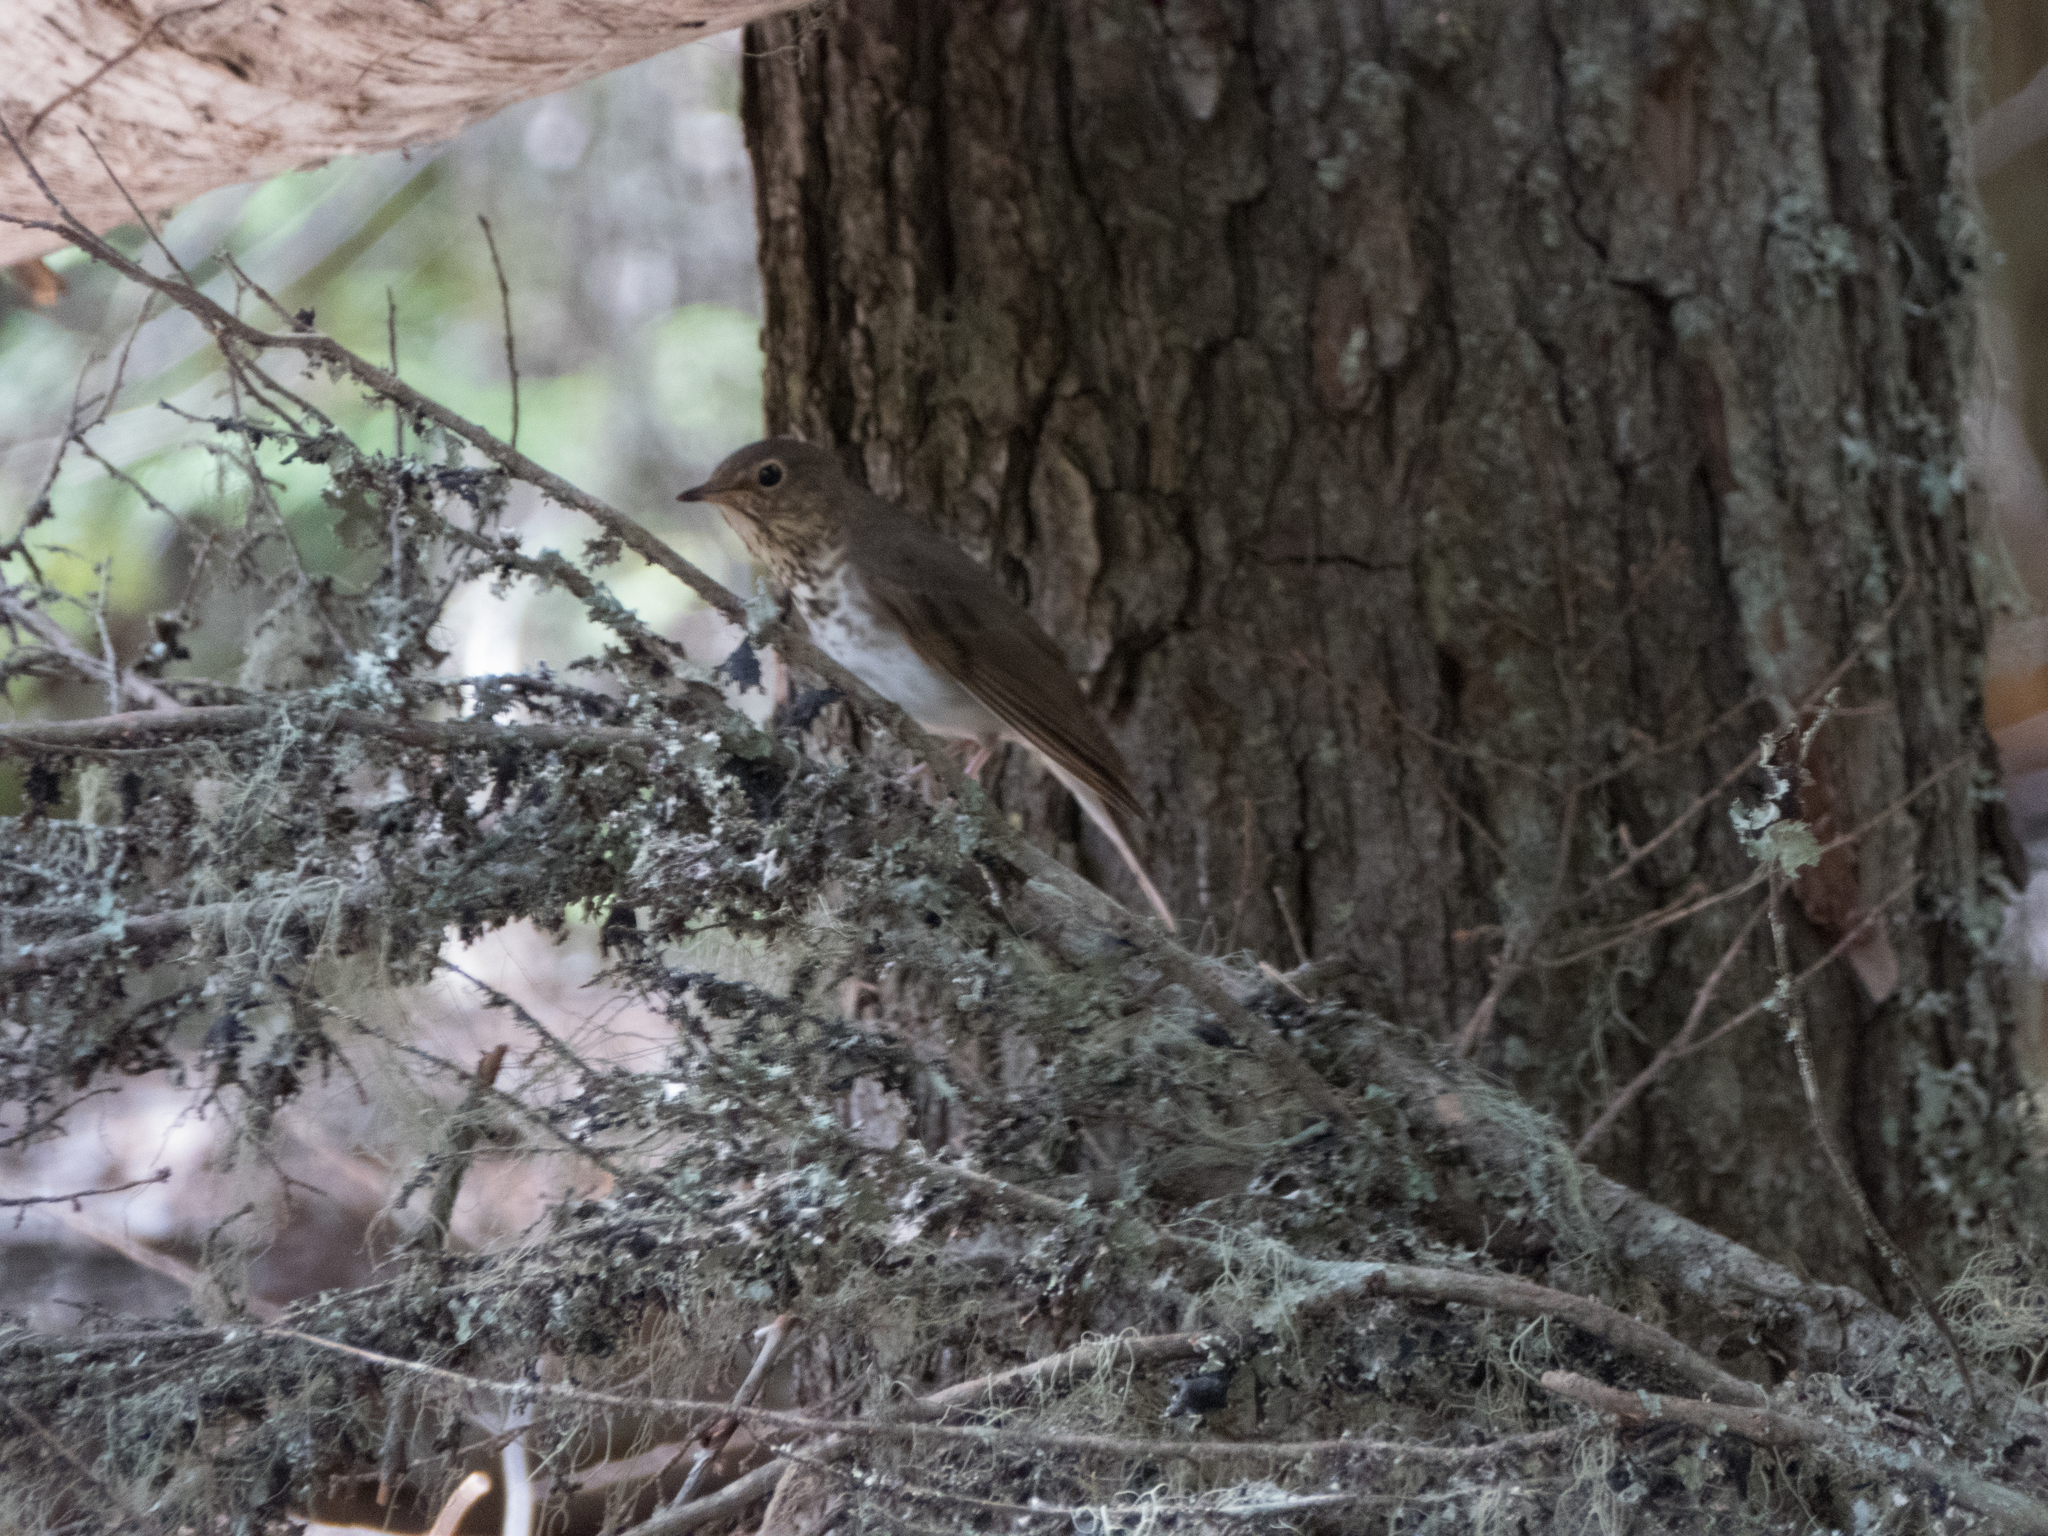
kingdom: Animalia
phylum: Chordata
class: Aves
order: Passeriformes
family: Turdidae
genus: Catharus
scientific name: Catharus ustulatus
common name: Swainson's thrush
